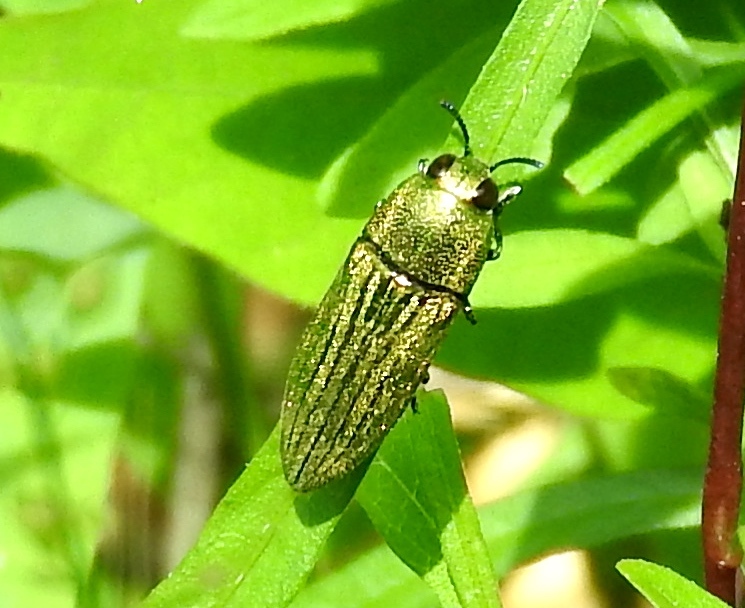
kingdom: Animalia
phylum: Arthropoda
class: Insecta
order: Coleoptera
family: Buprestidae
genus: Agaeocera
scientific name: Agaeocera
